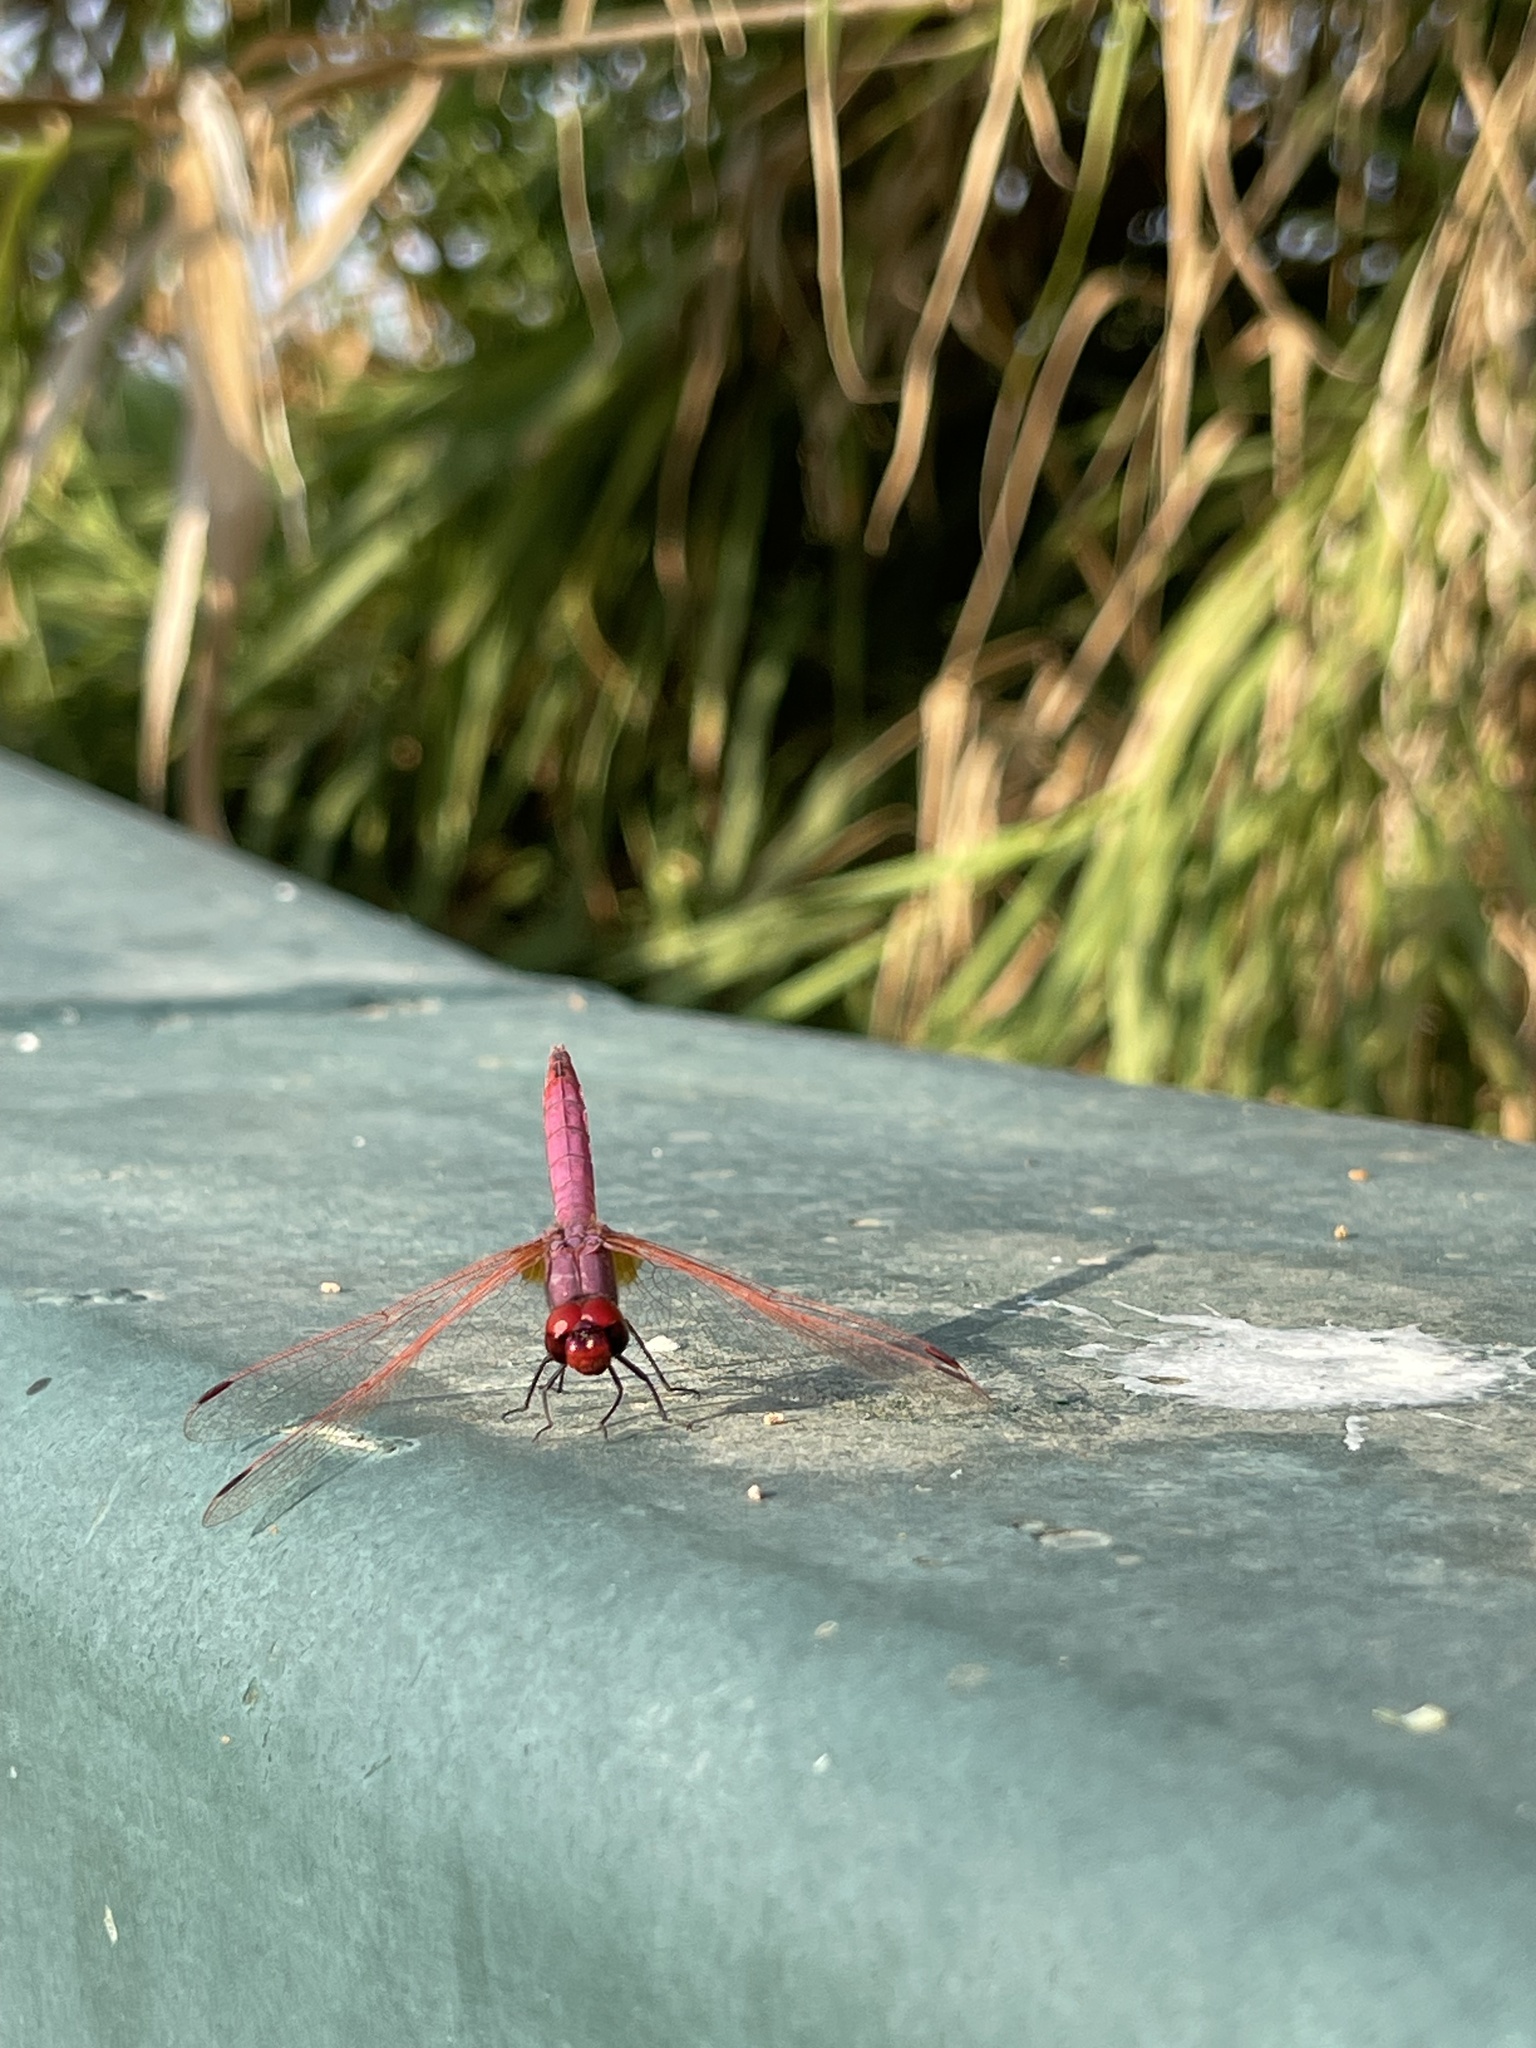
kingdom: Animalia
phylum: Arthropoda
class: Insecta
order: Odonata
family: Libellulidae
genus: Trithemis
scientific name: Trithemis annulata
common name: Violet dropwing
